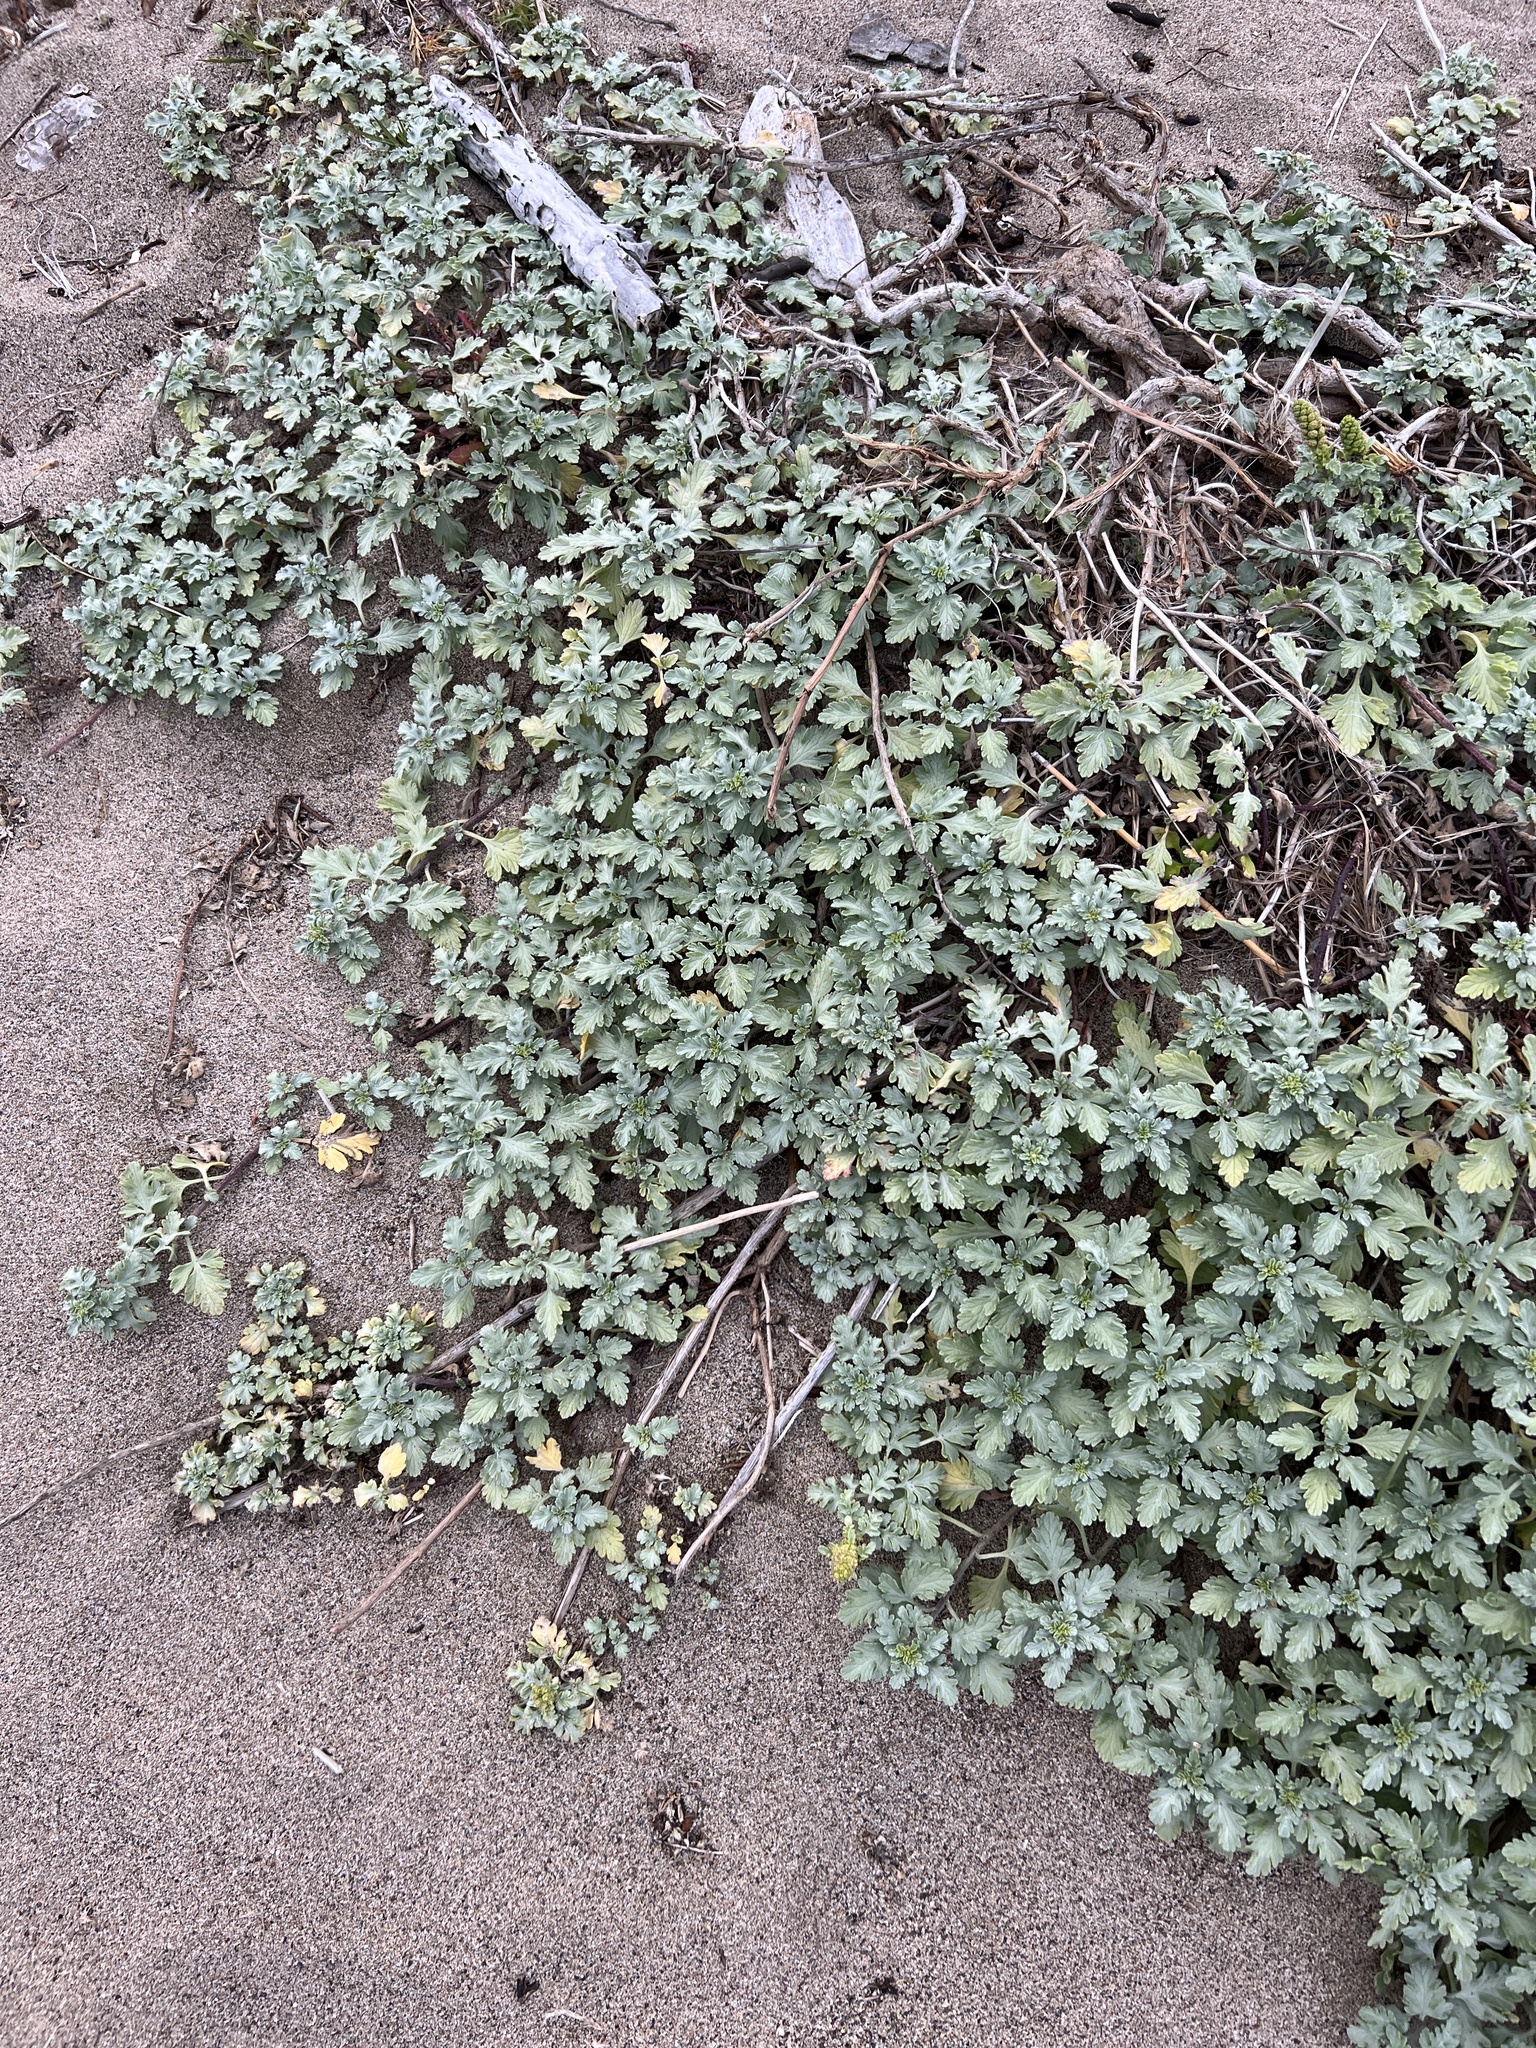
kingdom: Plantae
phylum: Tracheophyta
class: Magnoliopsida
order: Asterales
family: Asteraceae
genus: Ambrosia
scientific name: Ambrosia chamissonis
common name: Beachbur
